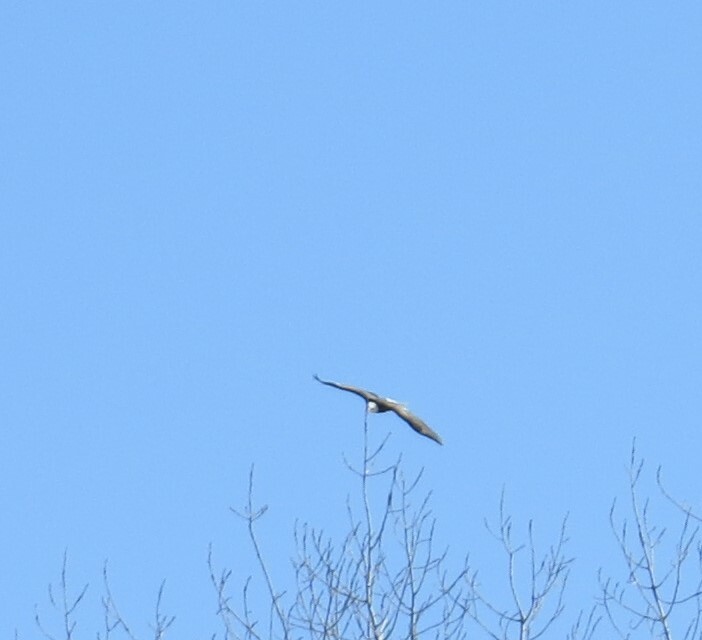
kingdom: Animalia
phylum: Chordata
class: Aves
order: Accipitriformes
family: Accipitridae
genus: Haliaeetus
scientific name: Haliaeetus leucocephalus
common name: Bald eagle
